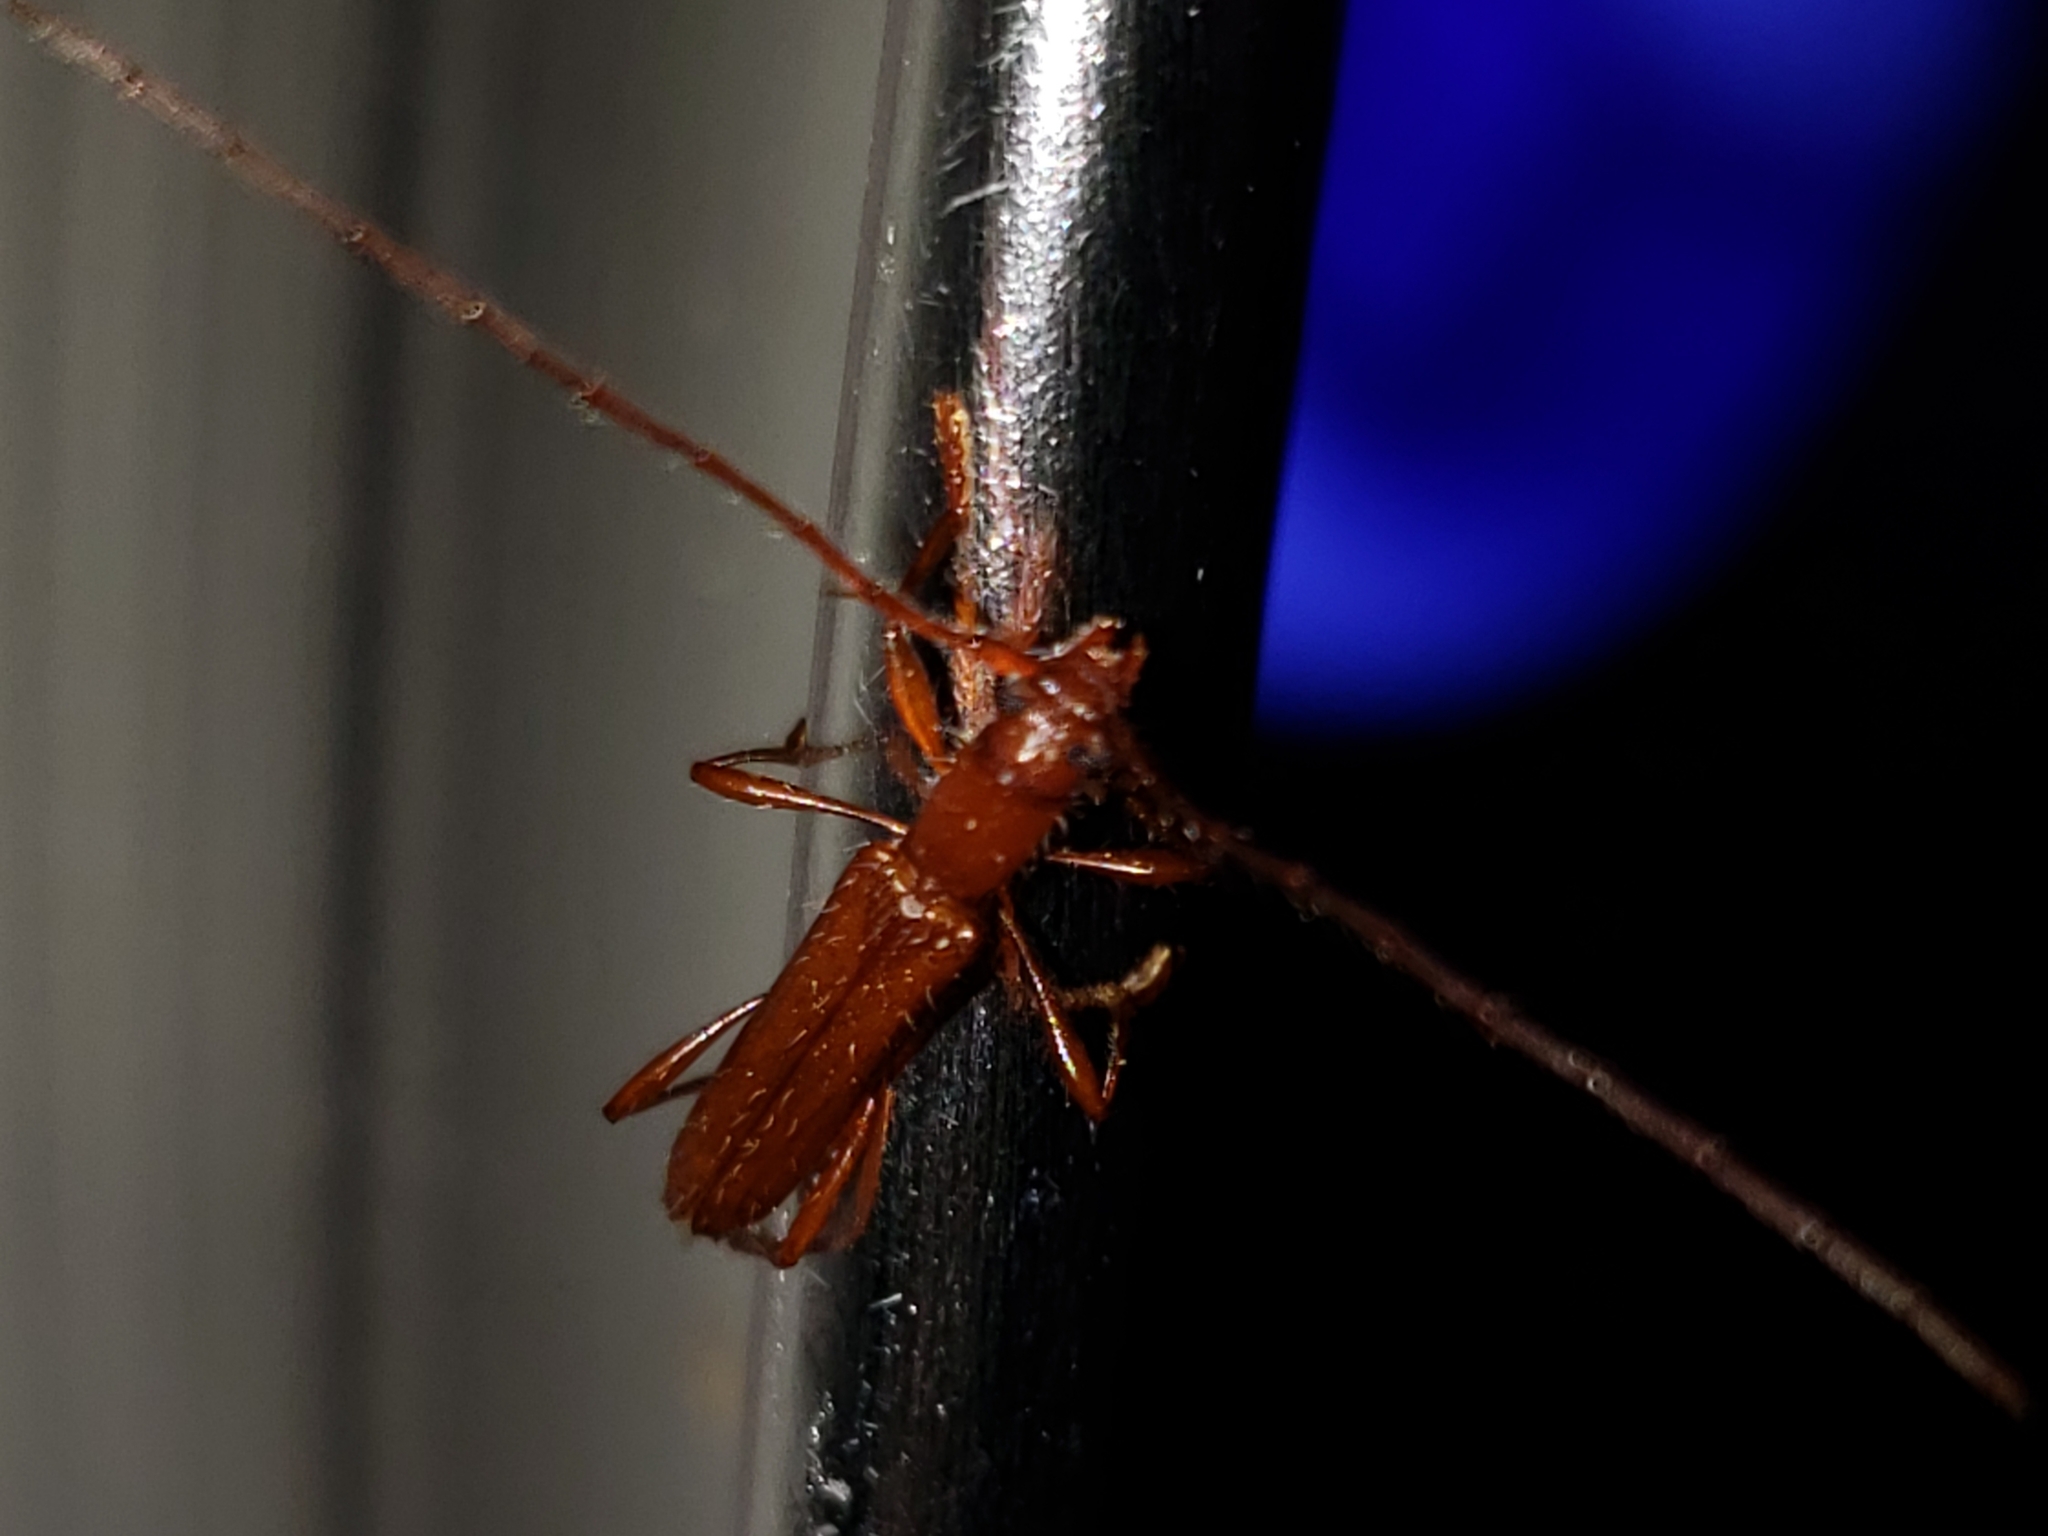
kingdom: Animalia
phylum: Arthropoda
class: Insecta
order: Coleoptera
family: Cerambycidae
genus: Psyrassa
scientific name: Psyrassa pertenuis
